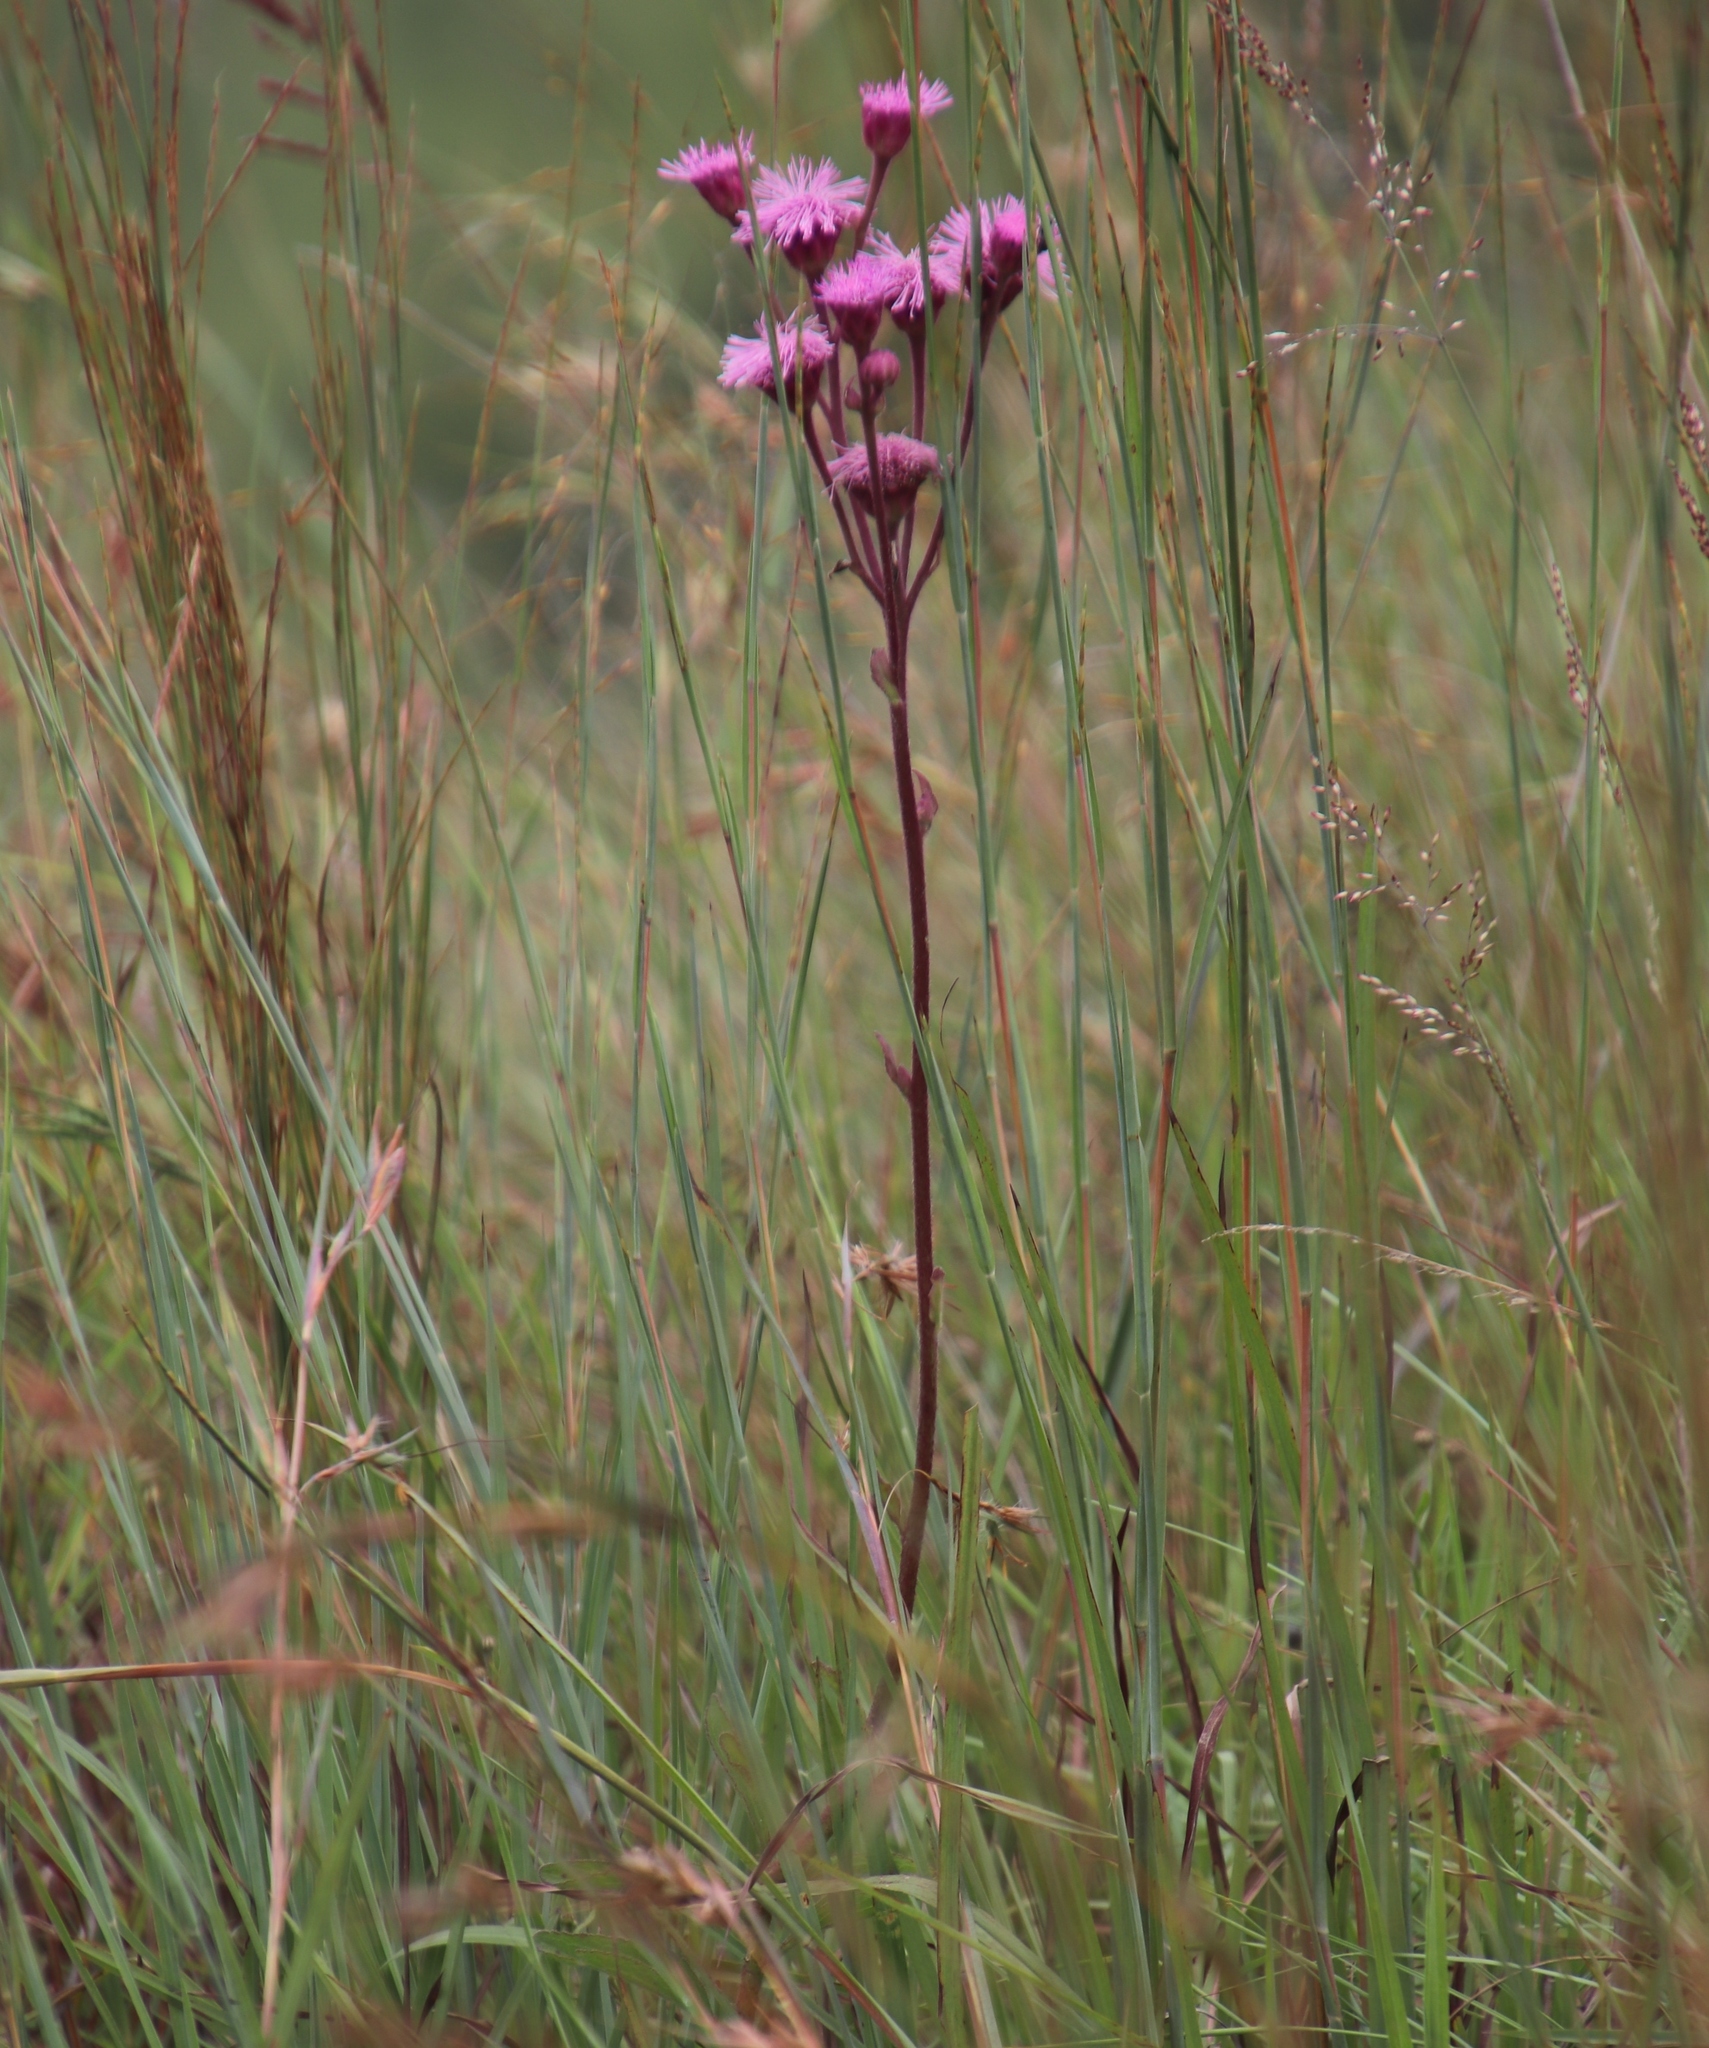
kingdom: Plantae
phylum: Tracheophyta
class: Magnoliopsida
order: Asterales
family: Asteraceae
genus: Campuloclinium
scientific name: Campuloclinium macrocephalum
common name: Pompomweed
